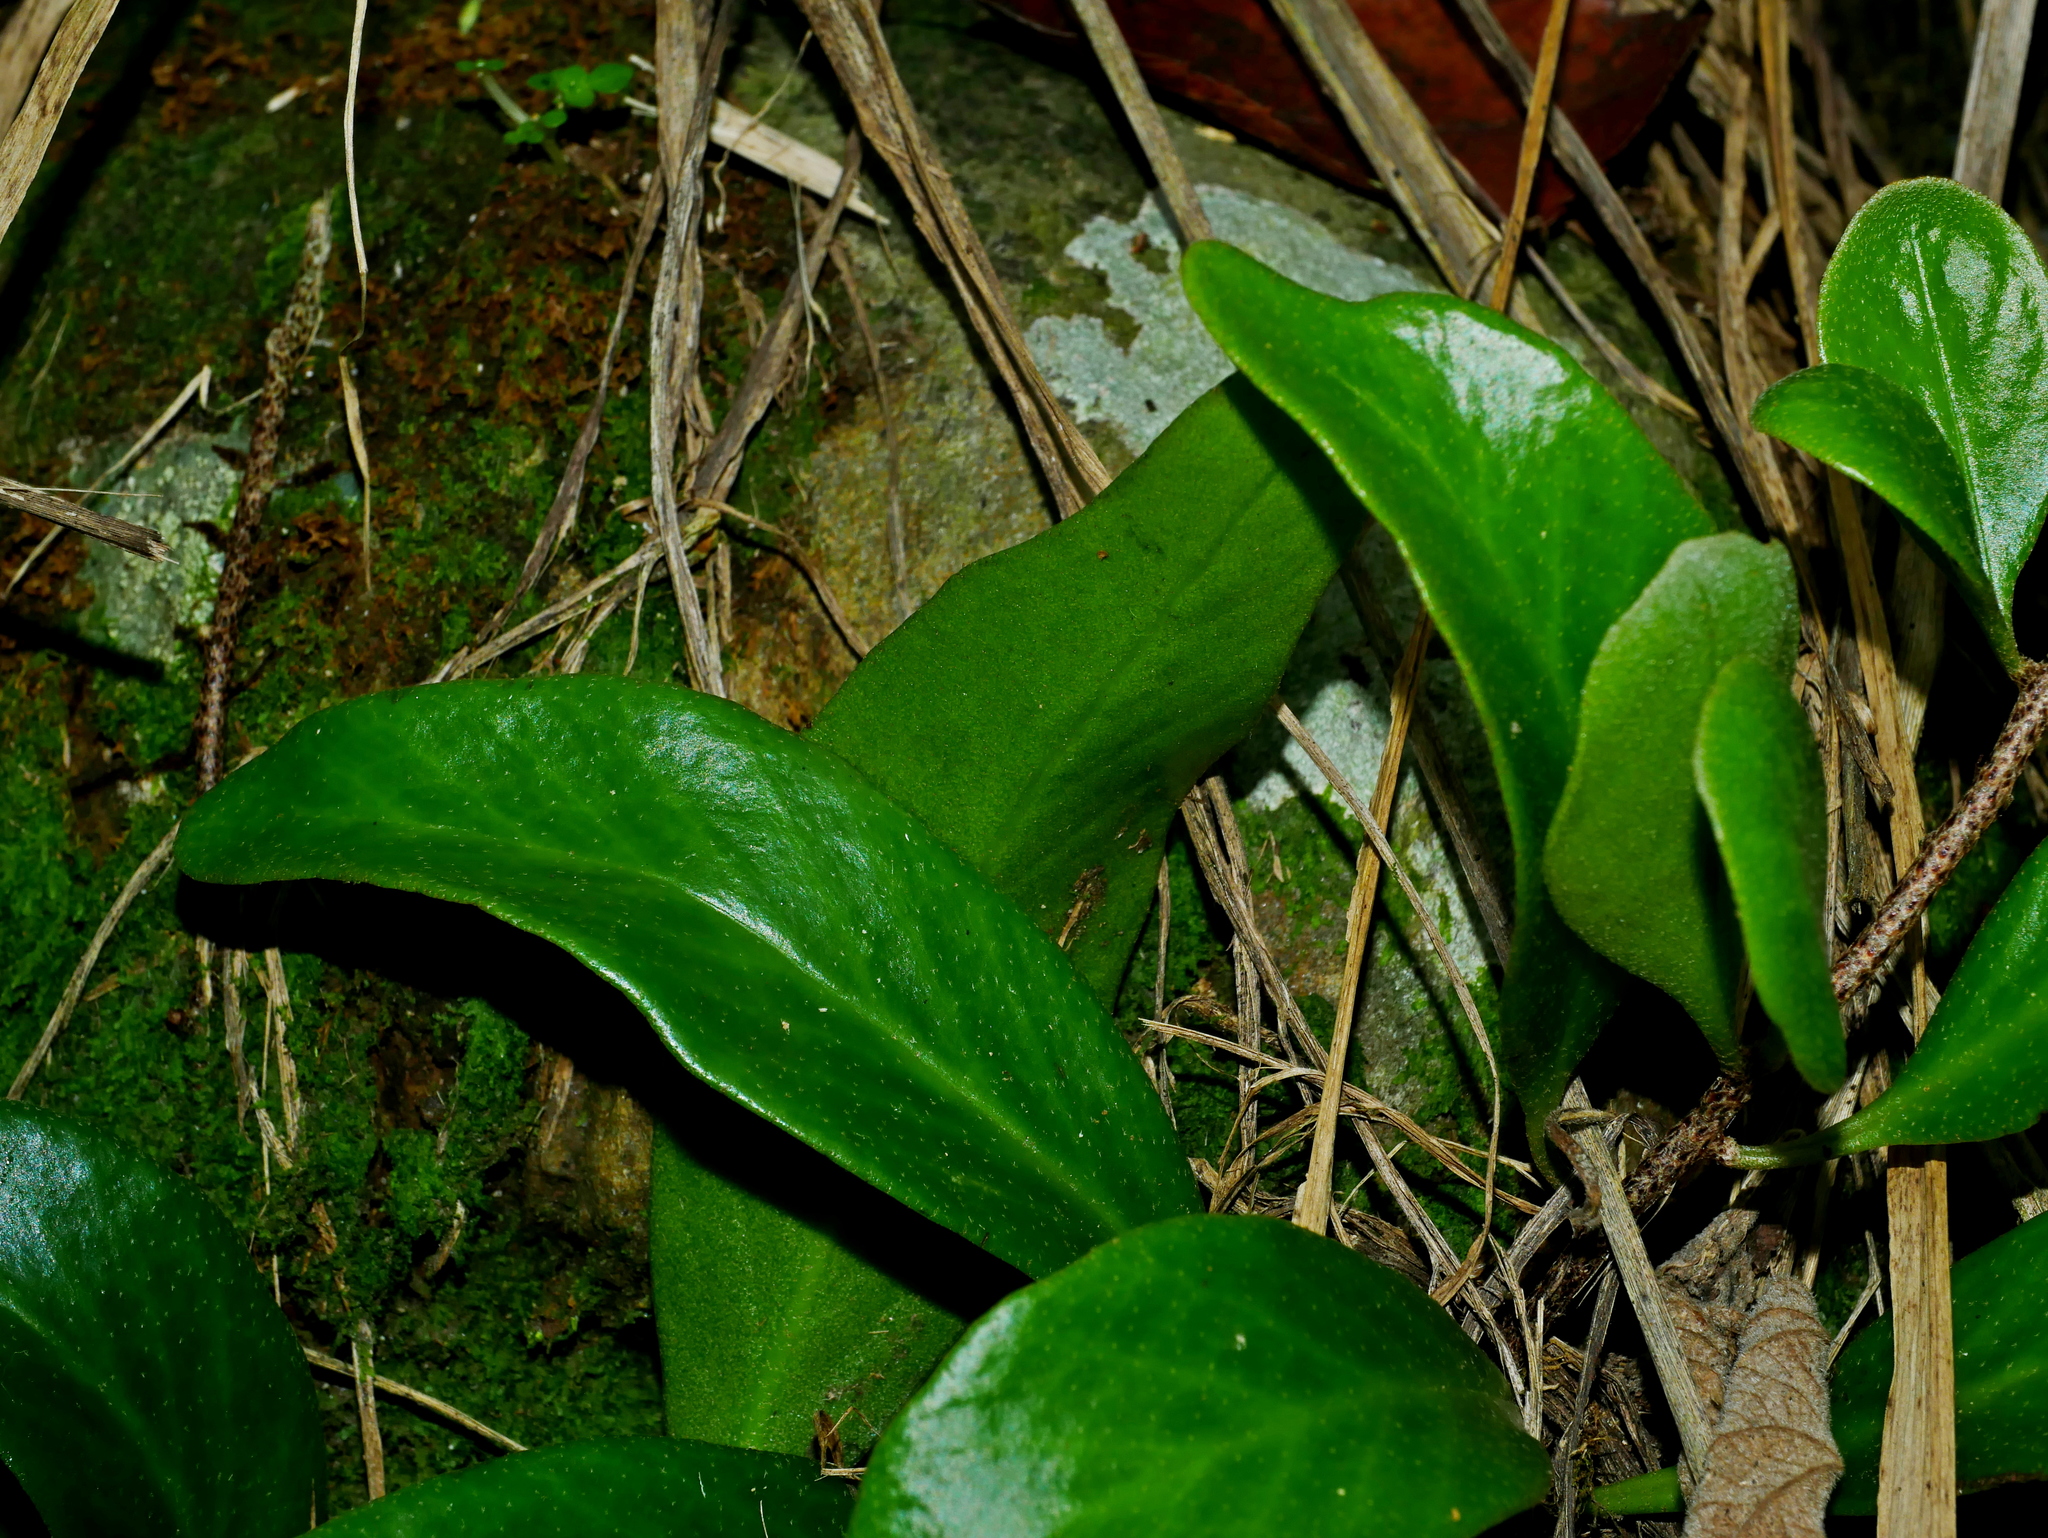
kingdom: Plantae
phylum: Tracheophyta
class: Polypodiopsida
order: Polypodiales
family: Polypodiaceae
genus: Pyrrosia
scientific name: Pyrrosia lanceolata
